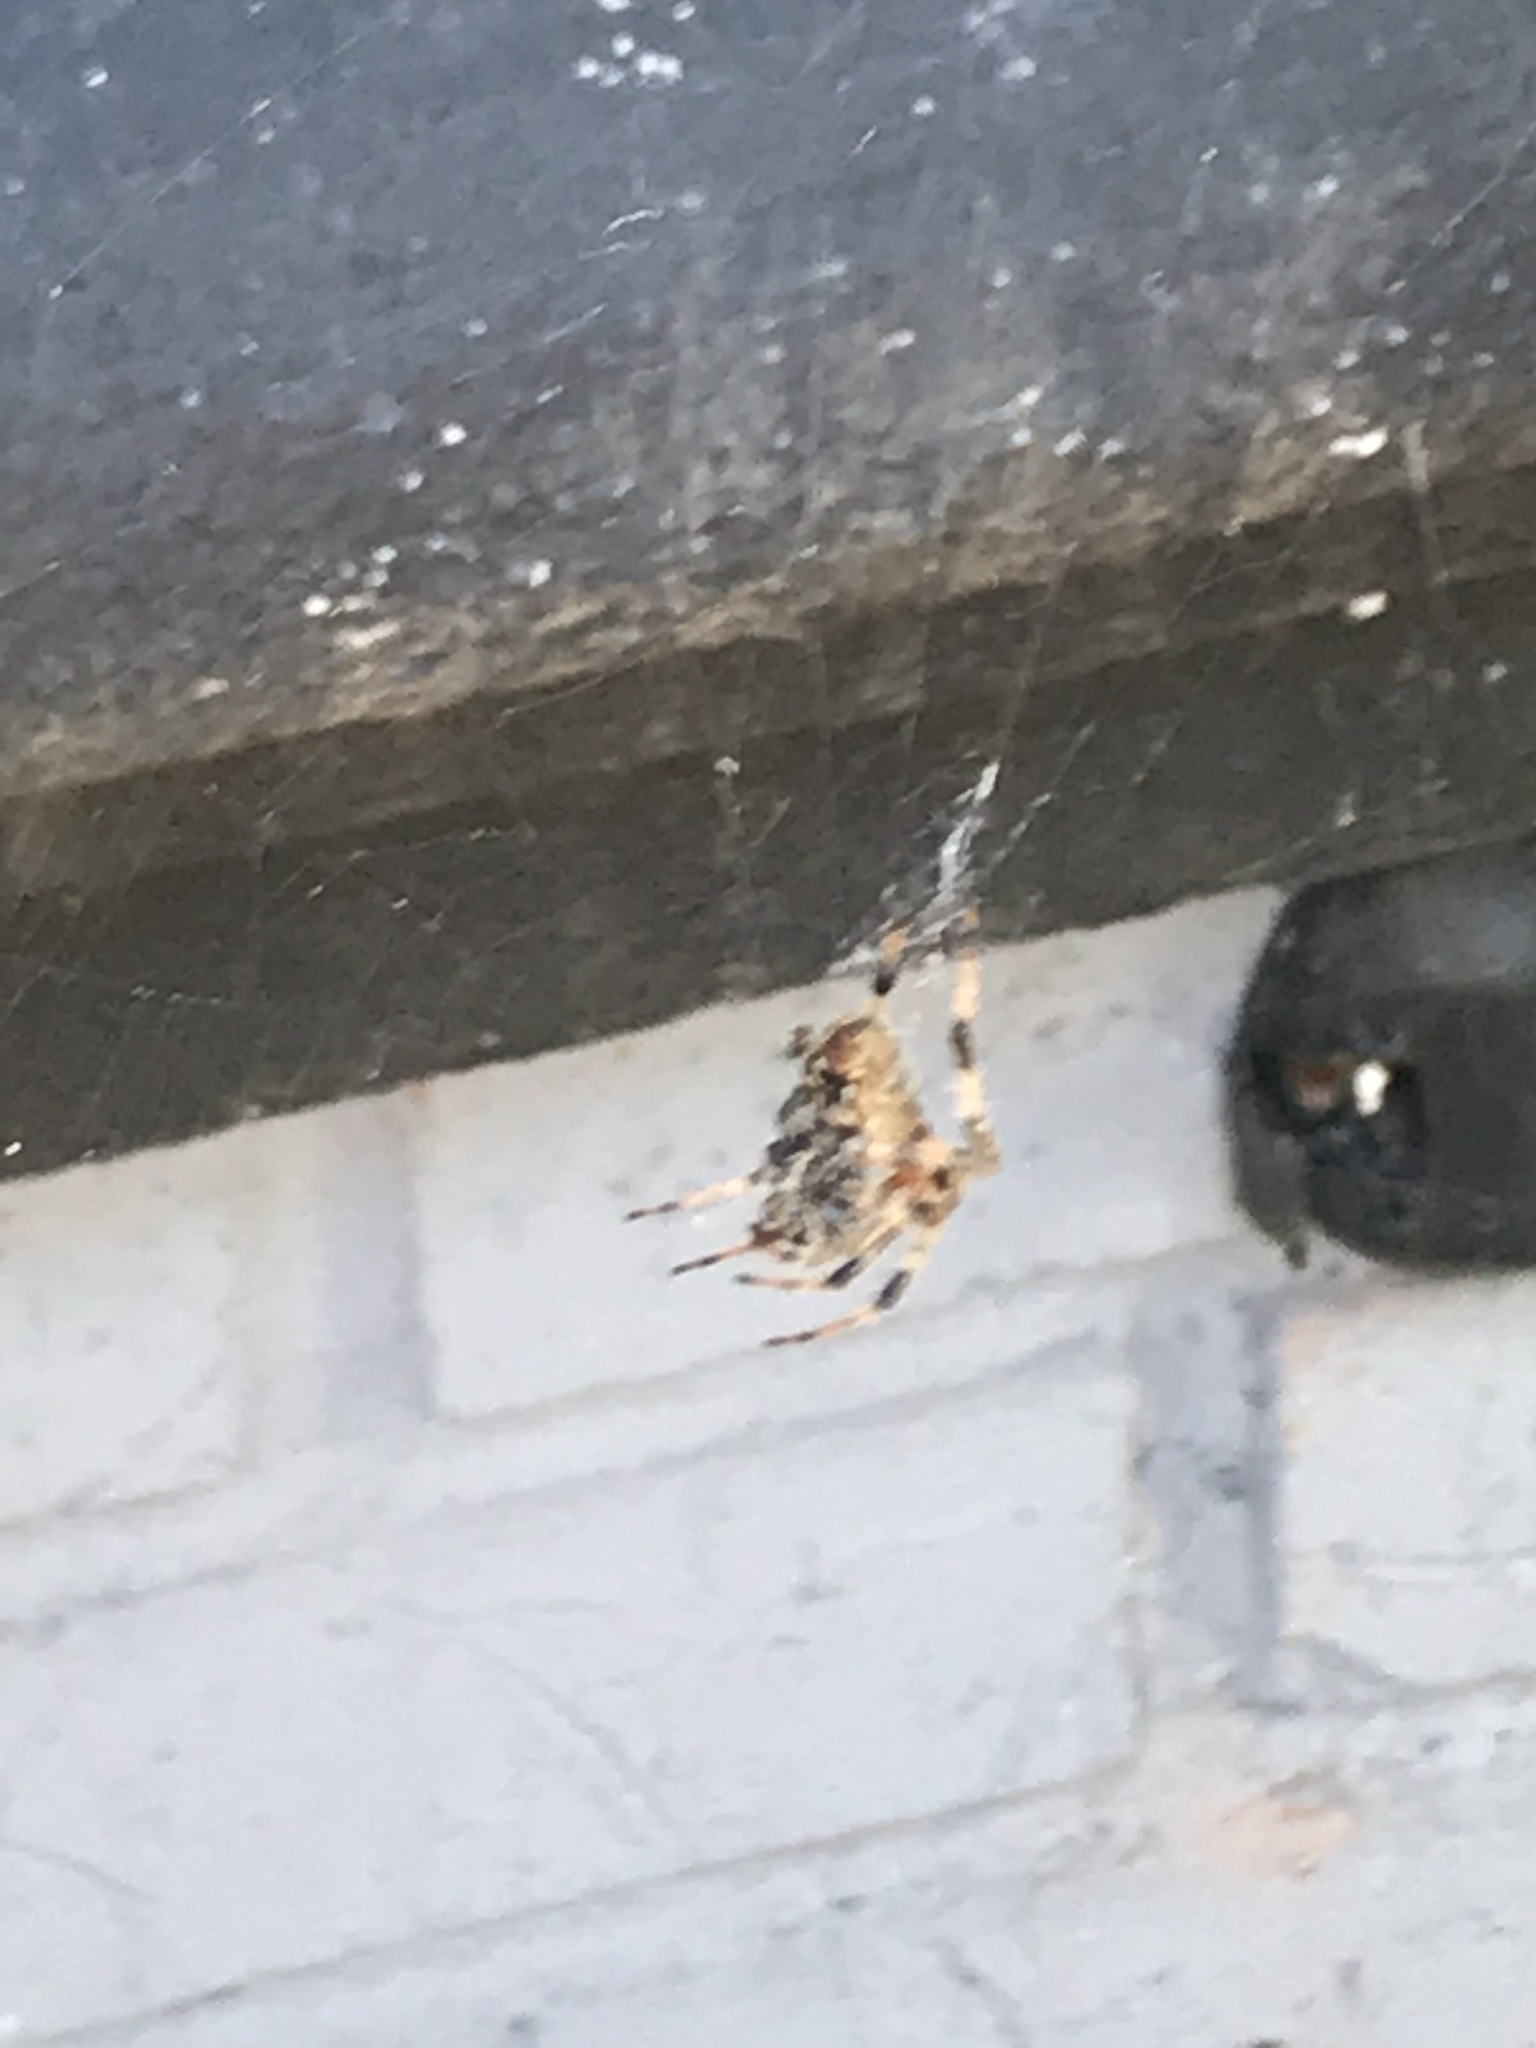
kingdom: Animalia
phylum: Arthropoda
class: Arachnida
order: Araneae
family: Araneidae
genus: Araneus
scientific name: Araneus diadematus
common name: Cross orbweaver
